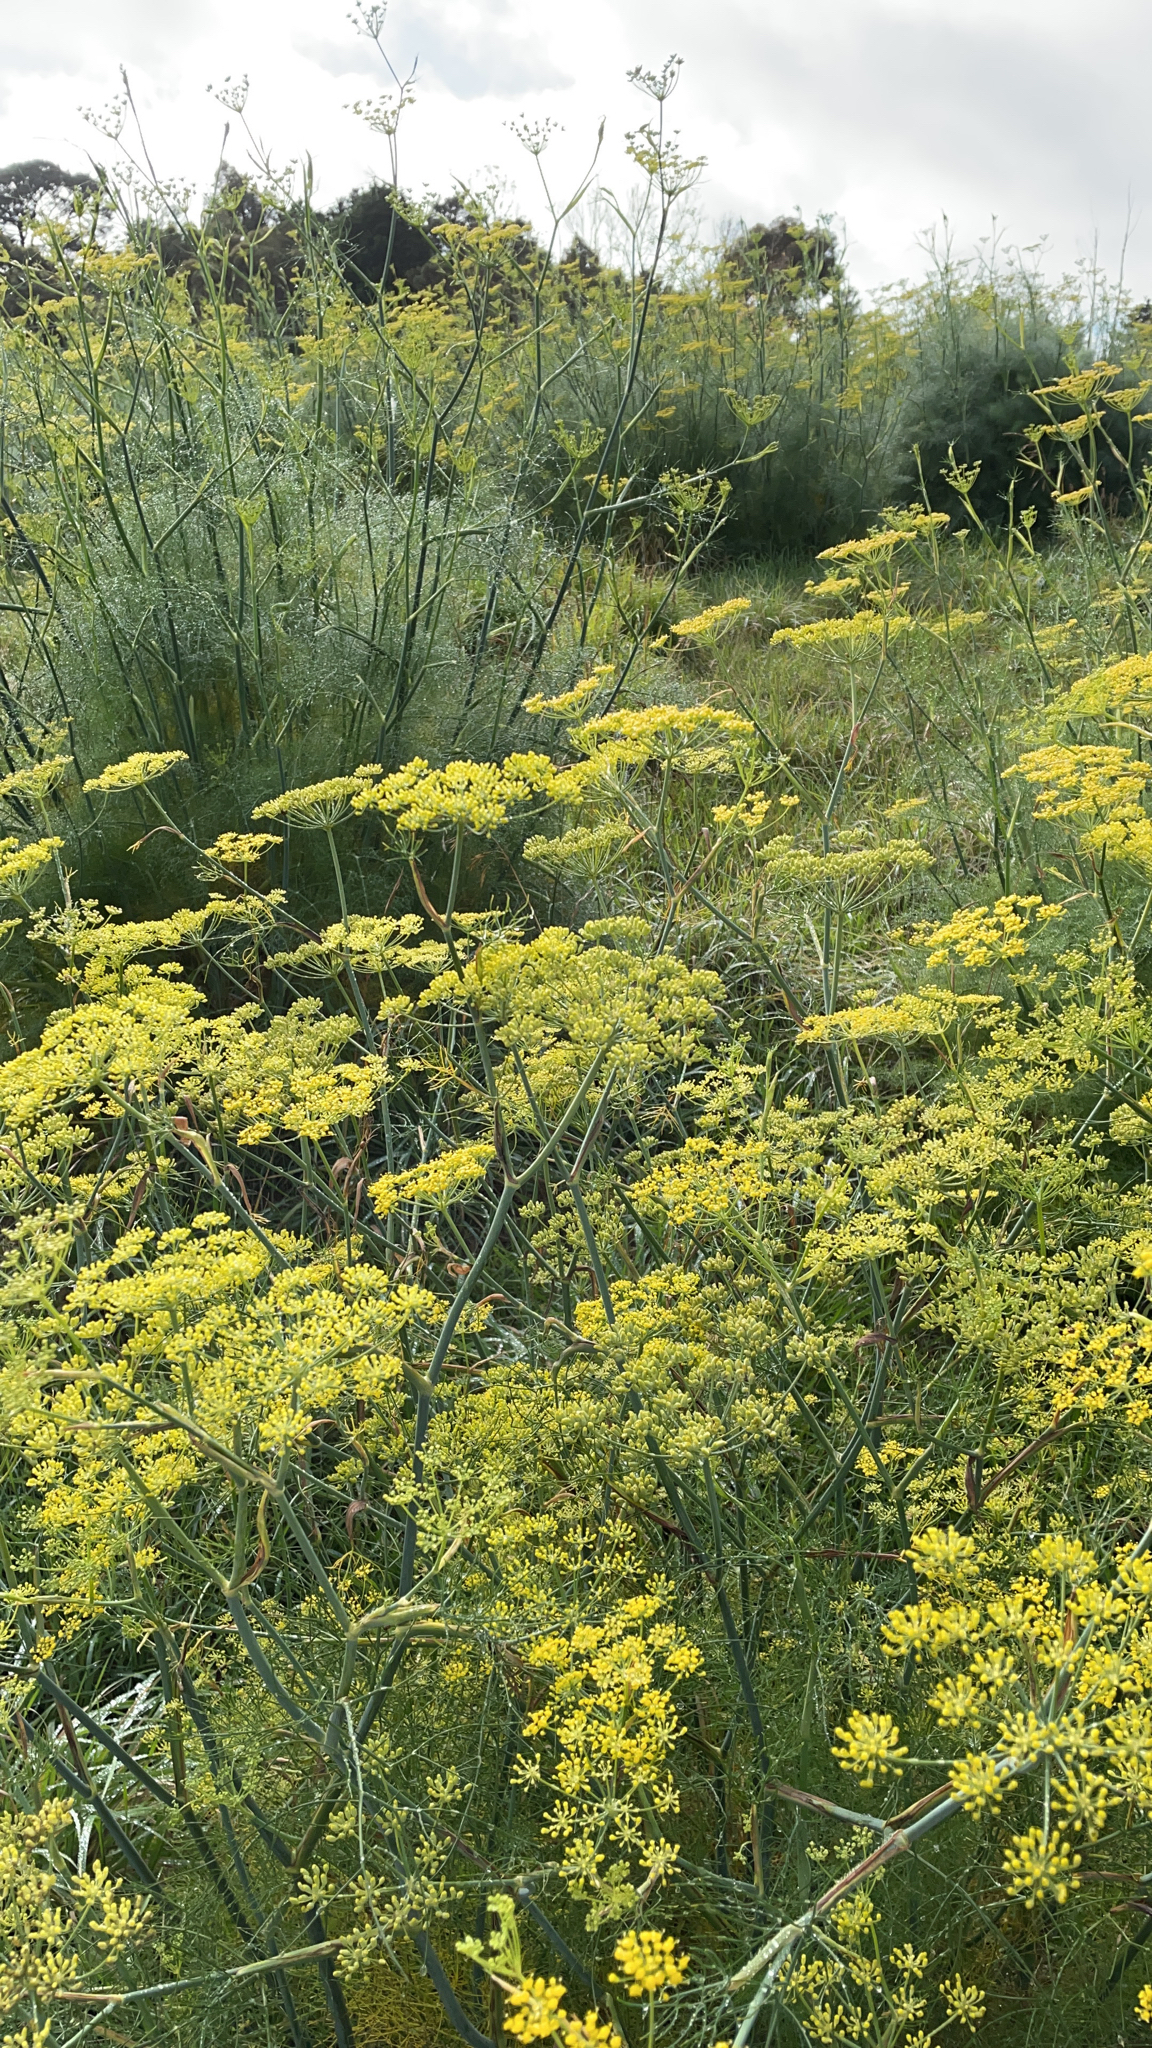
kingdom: Plantae
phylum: Tracheophyta
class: Magnoliopsida
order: Apiales
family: Apiaceae
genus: Foeniculum
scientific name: Foeniculum vulgare
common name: Fennel
